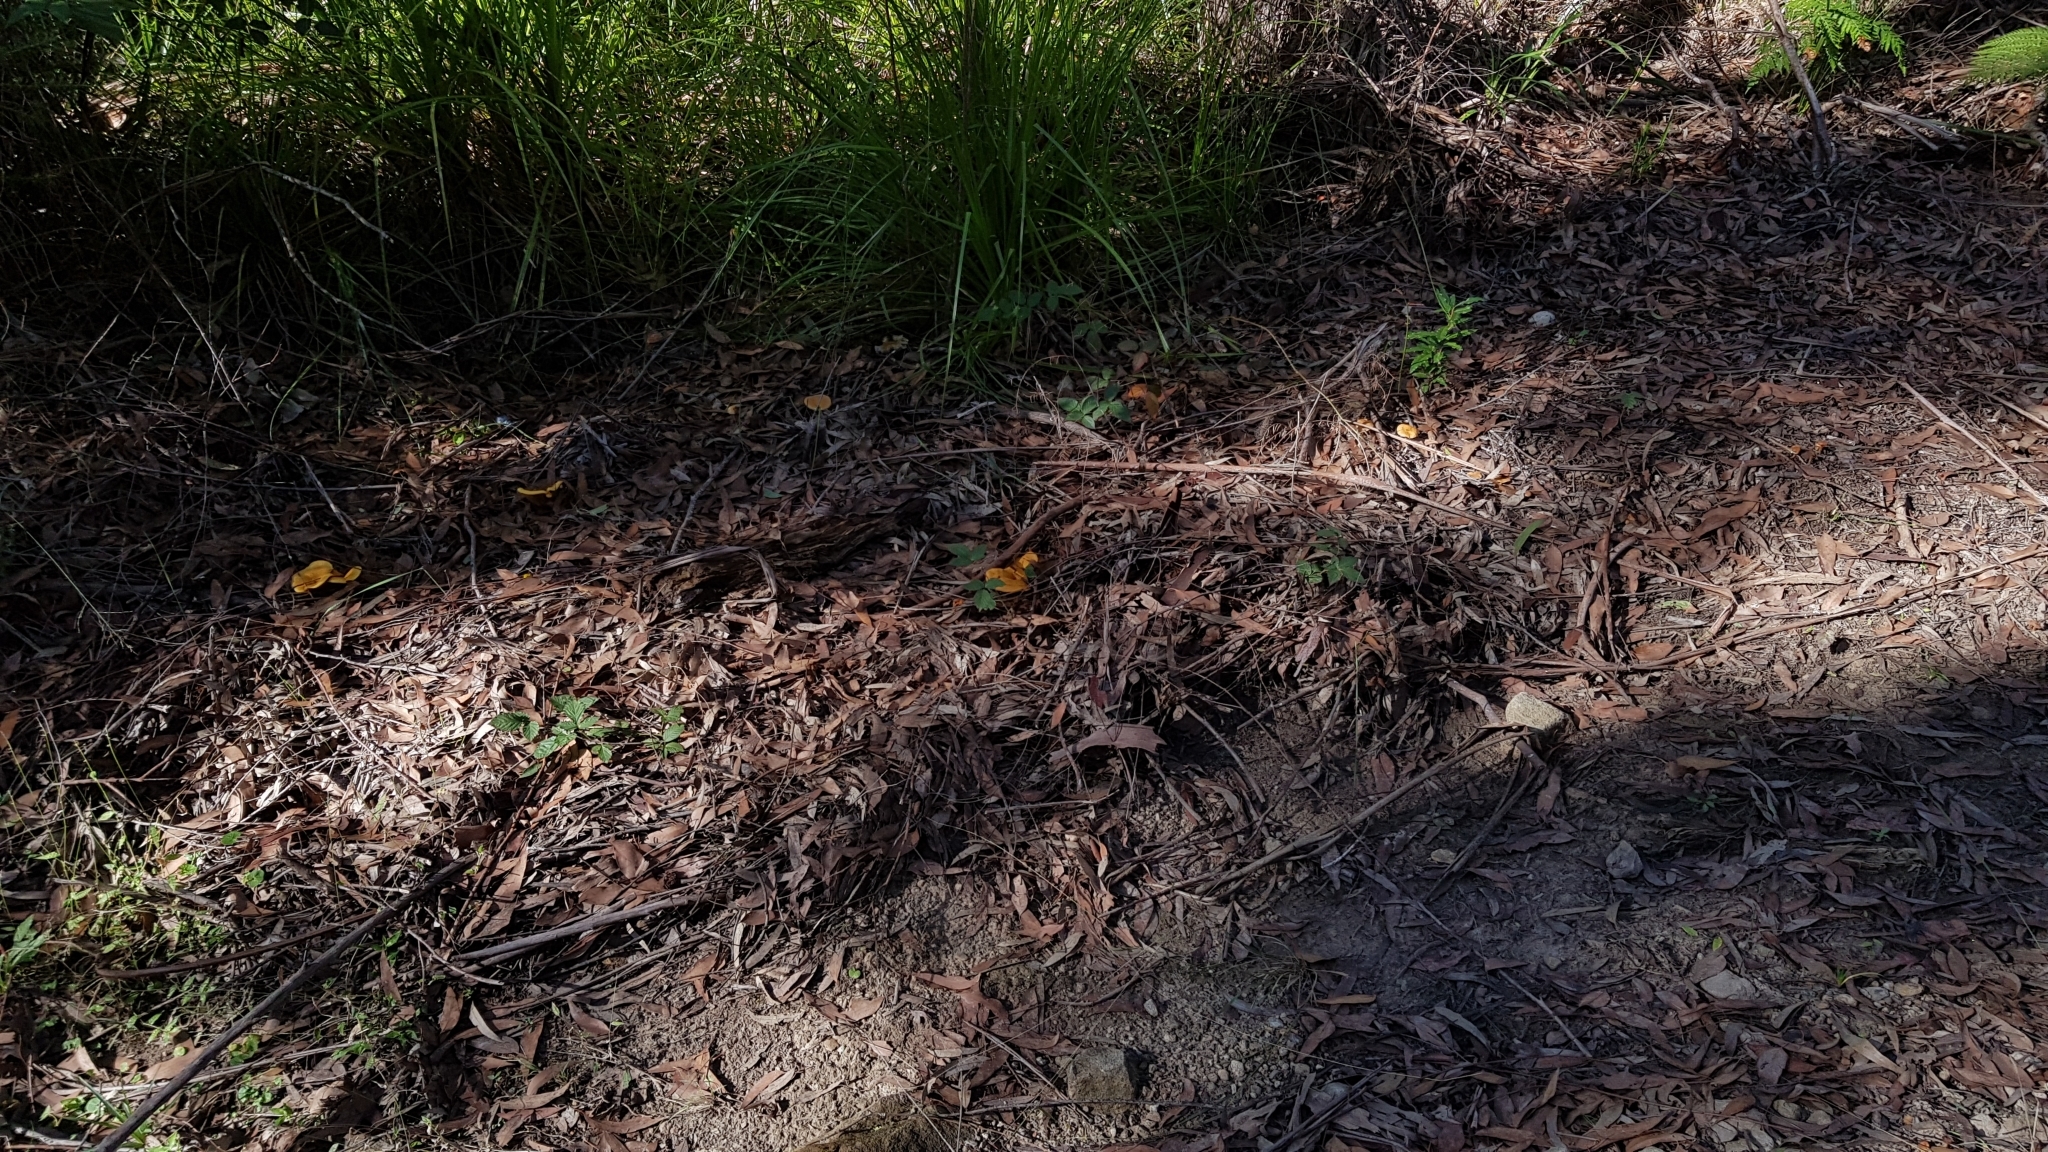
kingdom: Fungi
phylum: Basidiomycota
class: Agaricomycetes
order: Boletales
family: Serpulaceae
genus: Austropaxillus
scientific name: Austropaxillus infundibuliformis
